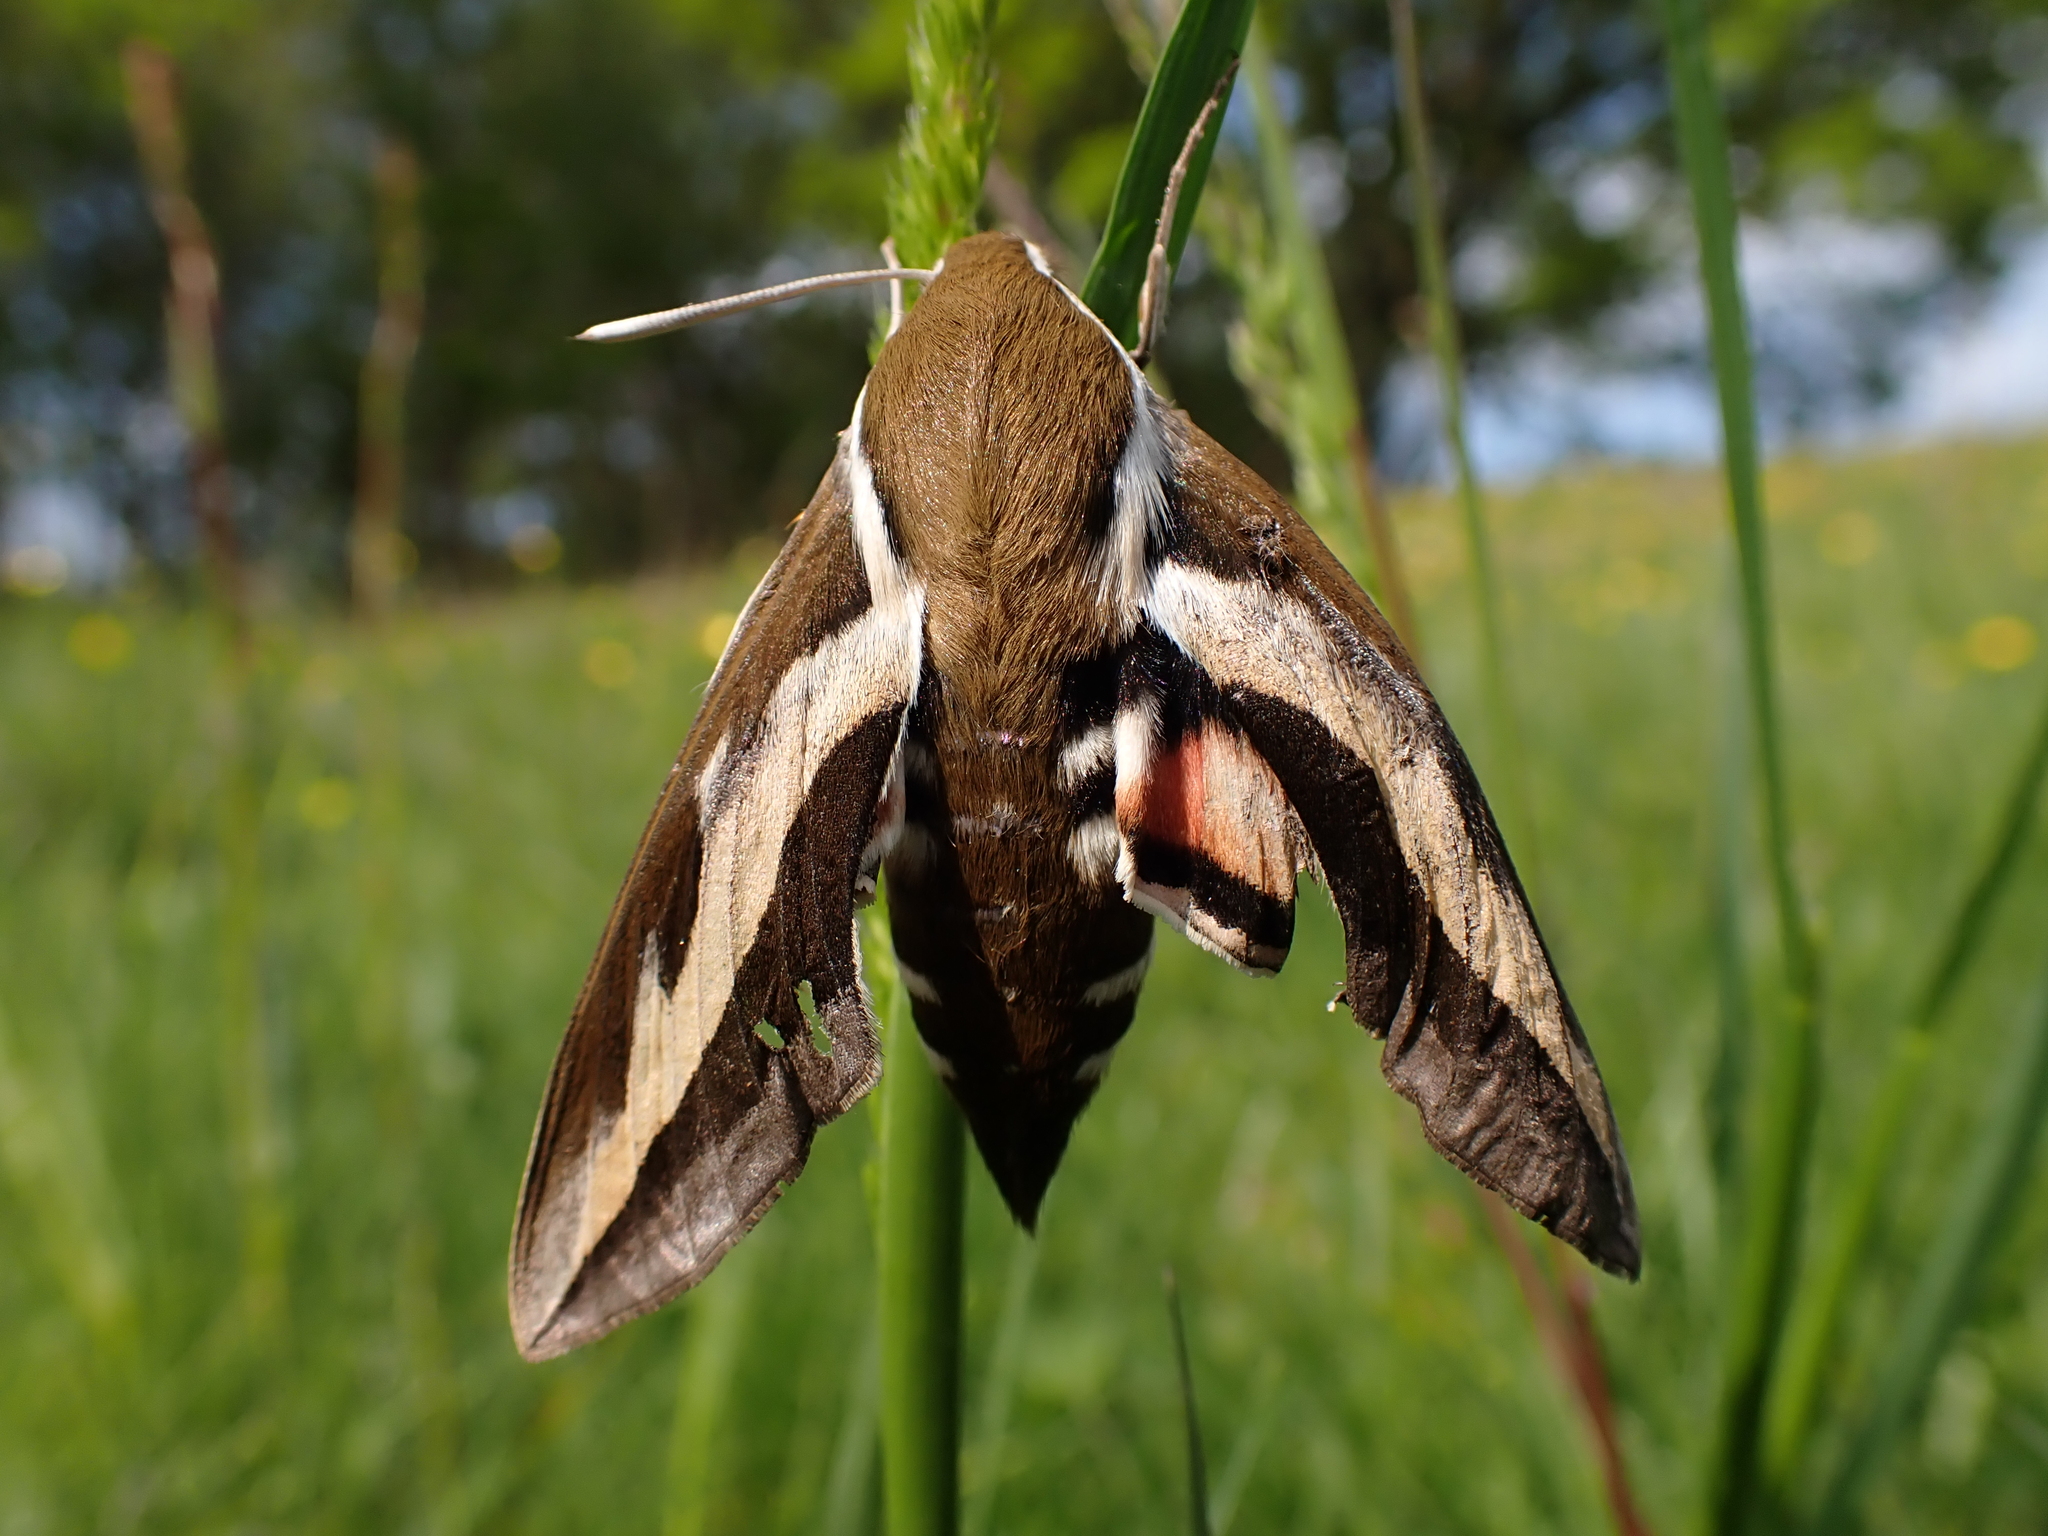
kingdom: Animalia
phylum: Arthropoda
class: Insecta
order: Lepidoptera
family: Sphingidae
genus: Hyles
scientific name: Hyles gallii
